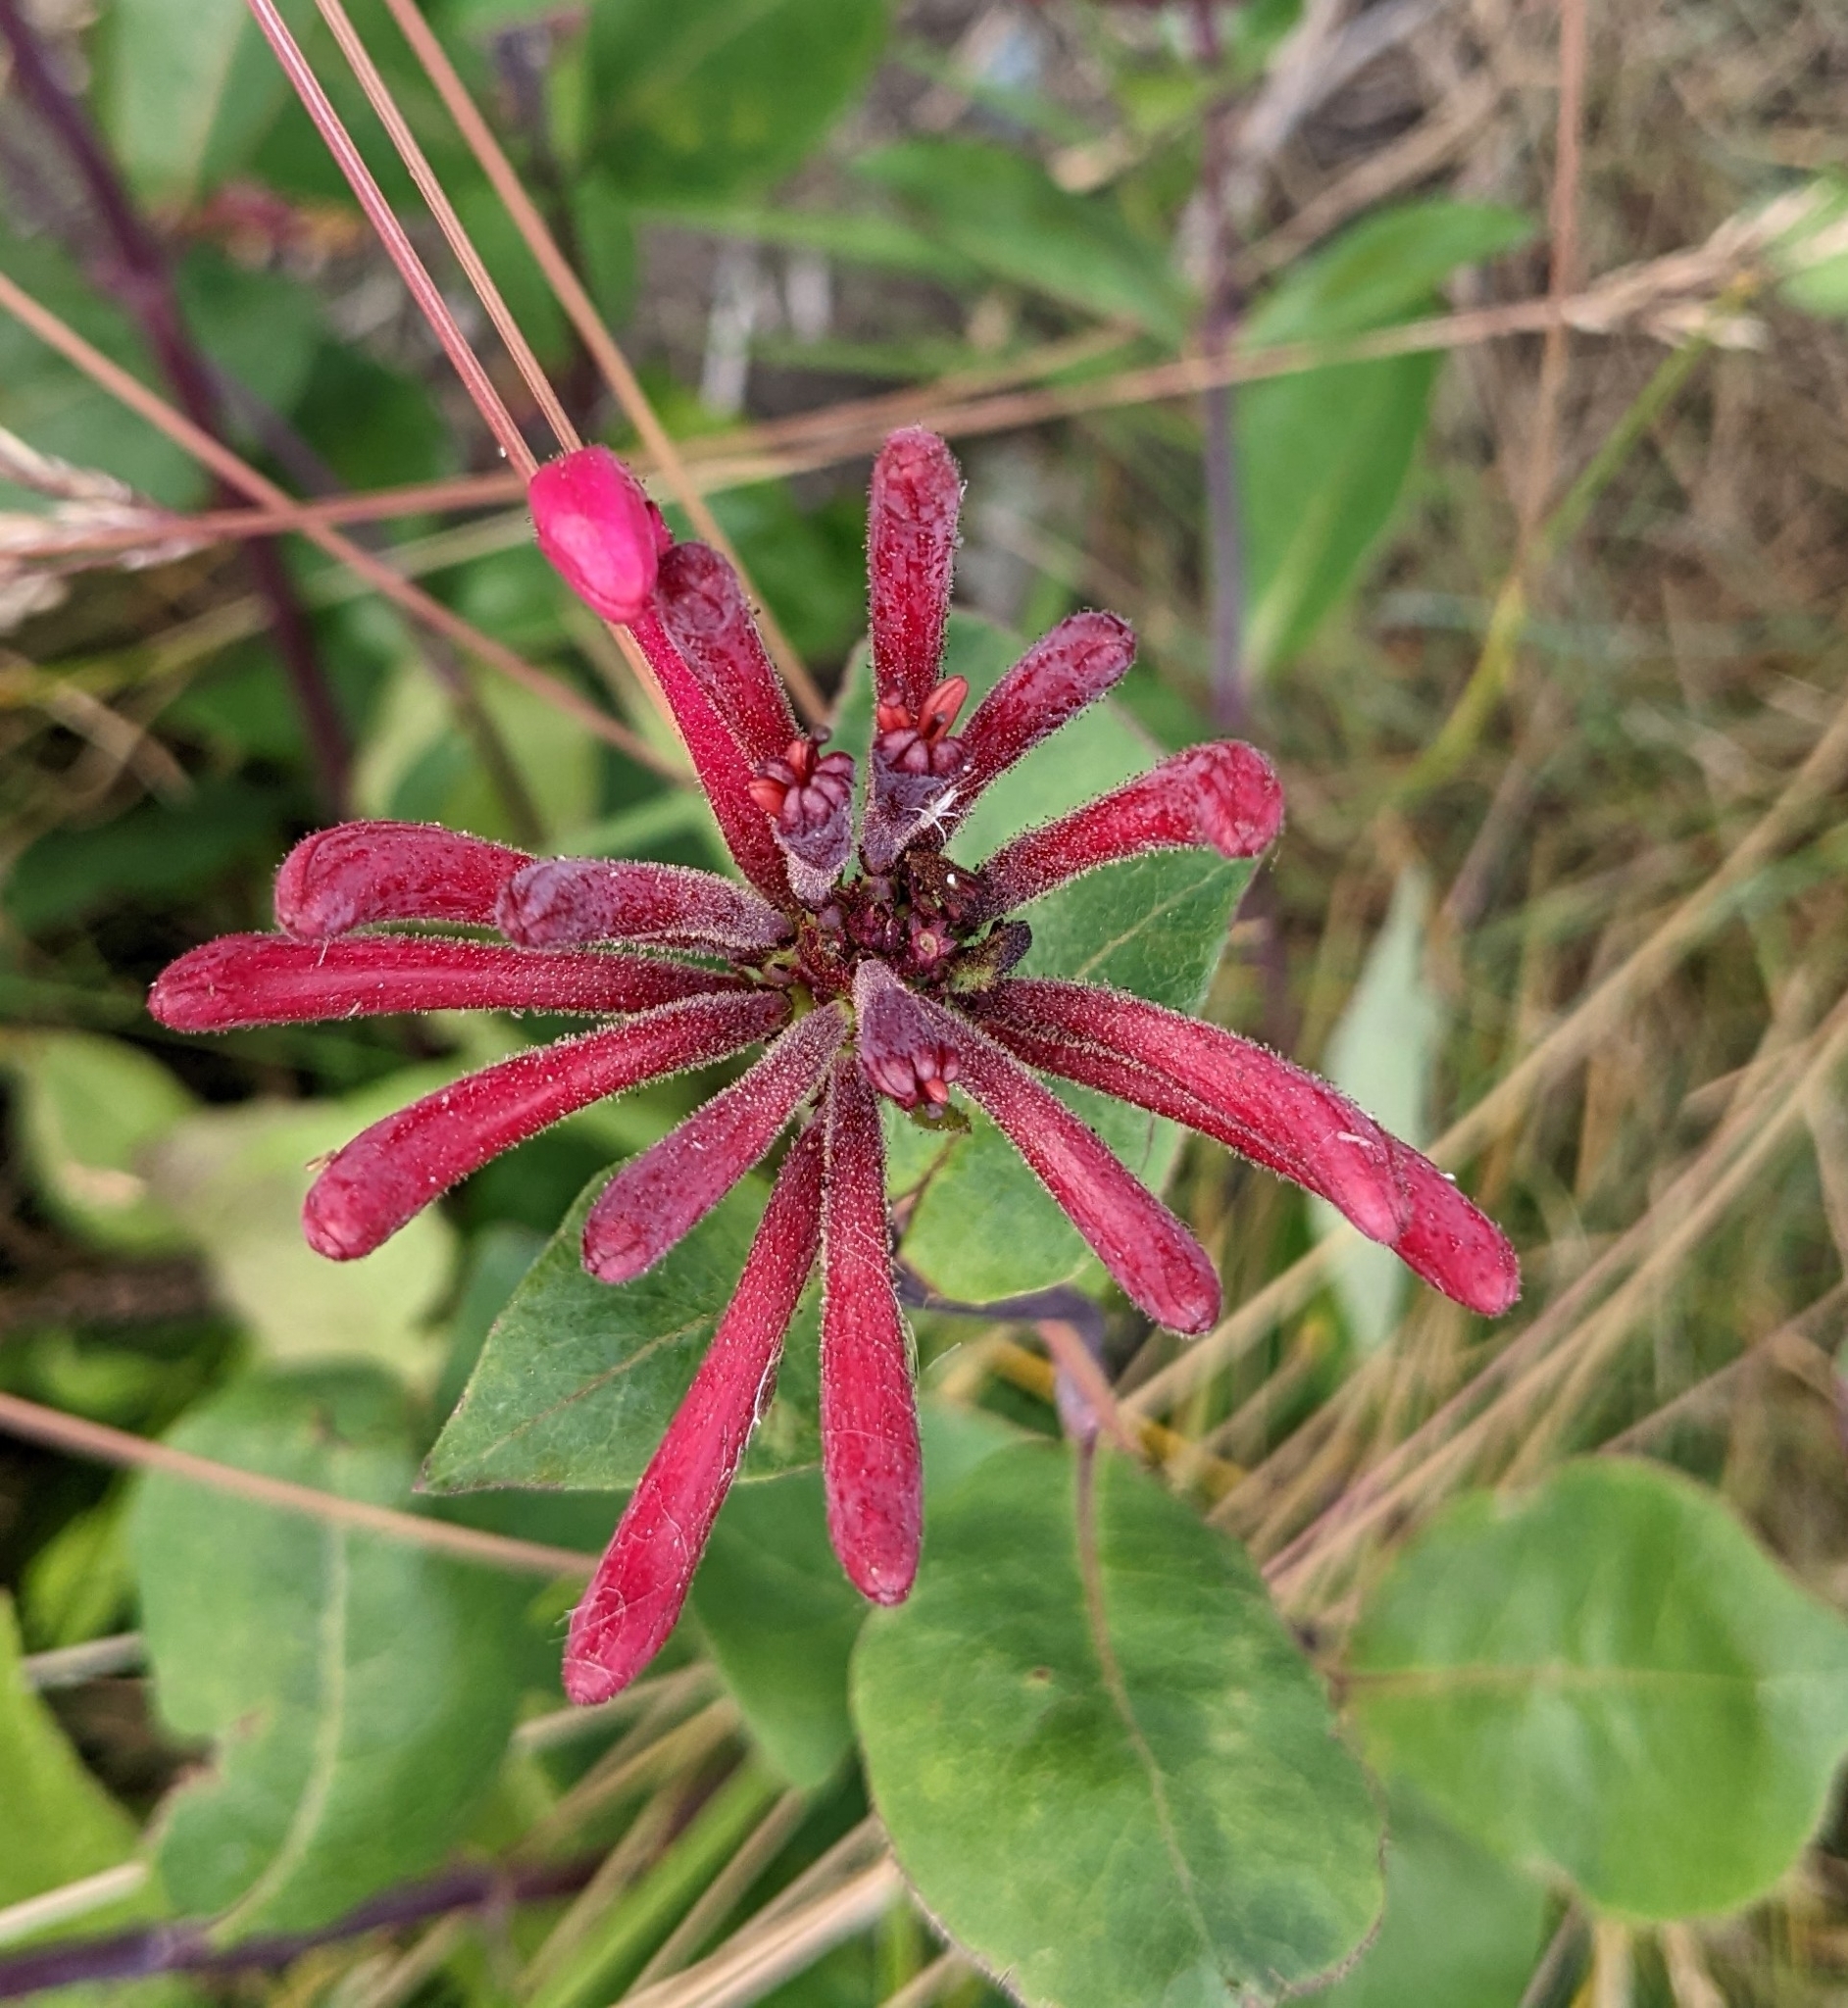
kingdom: Plantae
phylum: Tracheophyta
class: Magnoliopsida
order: Dipsacales
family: Caprifoliaceae
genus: Lonicera
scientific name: Lonicera periclymenum
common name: European honeysuckle
